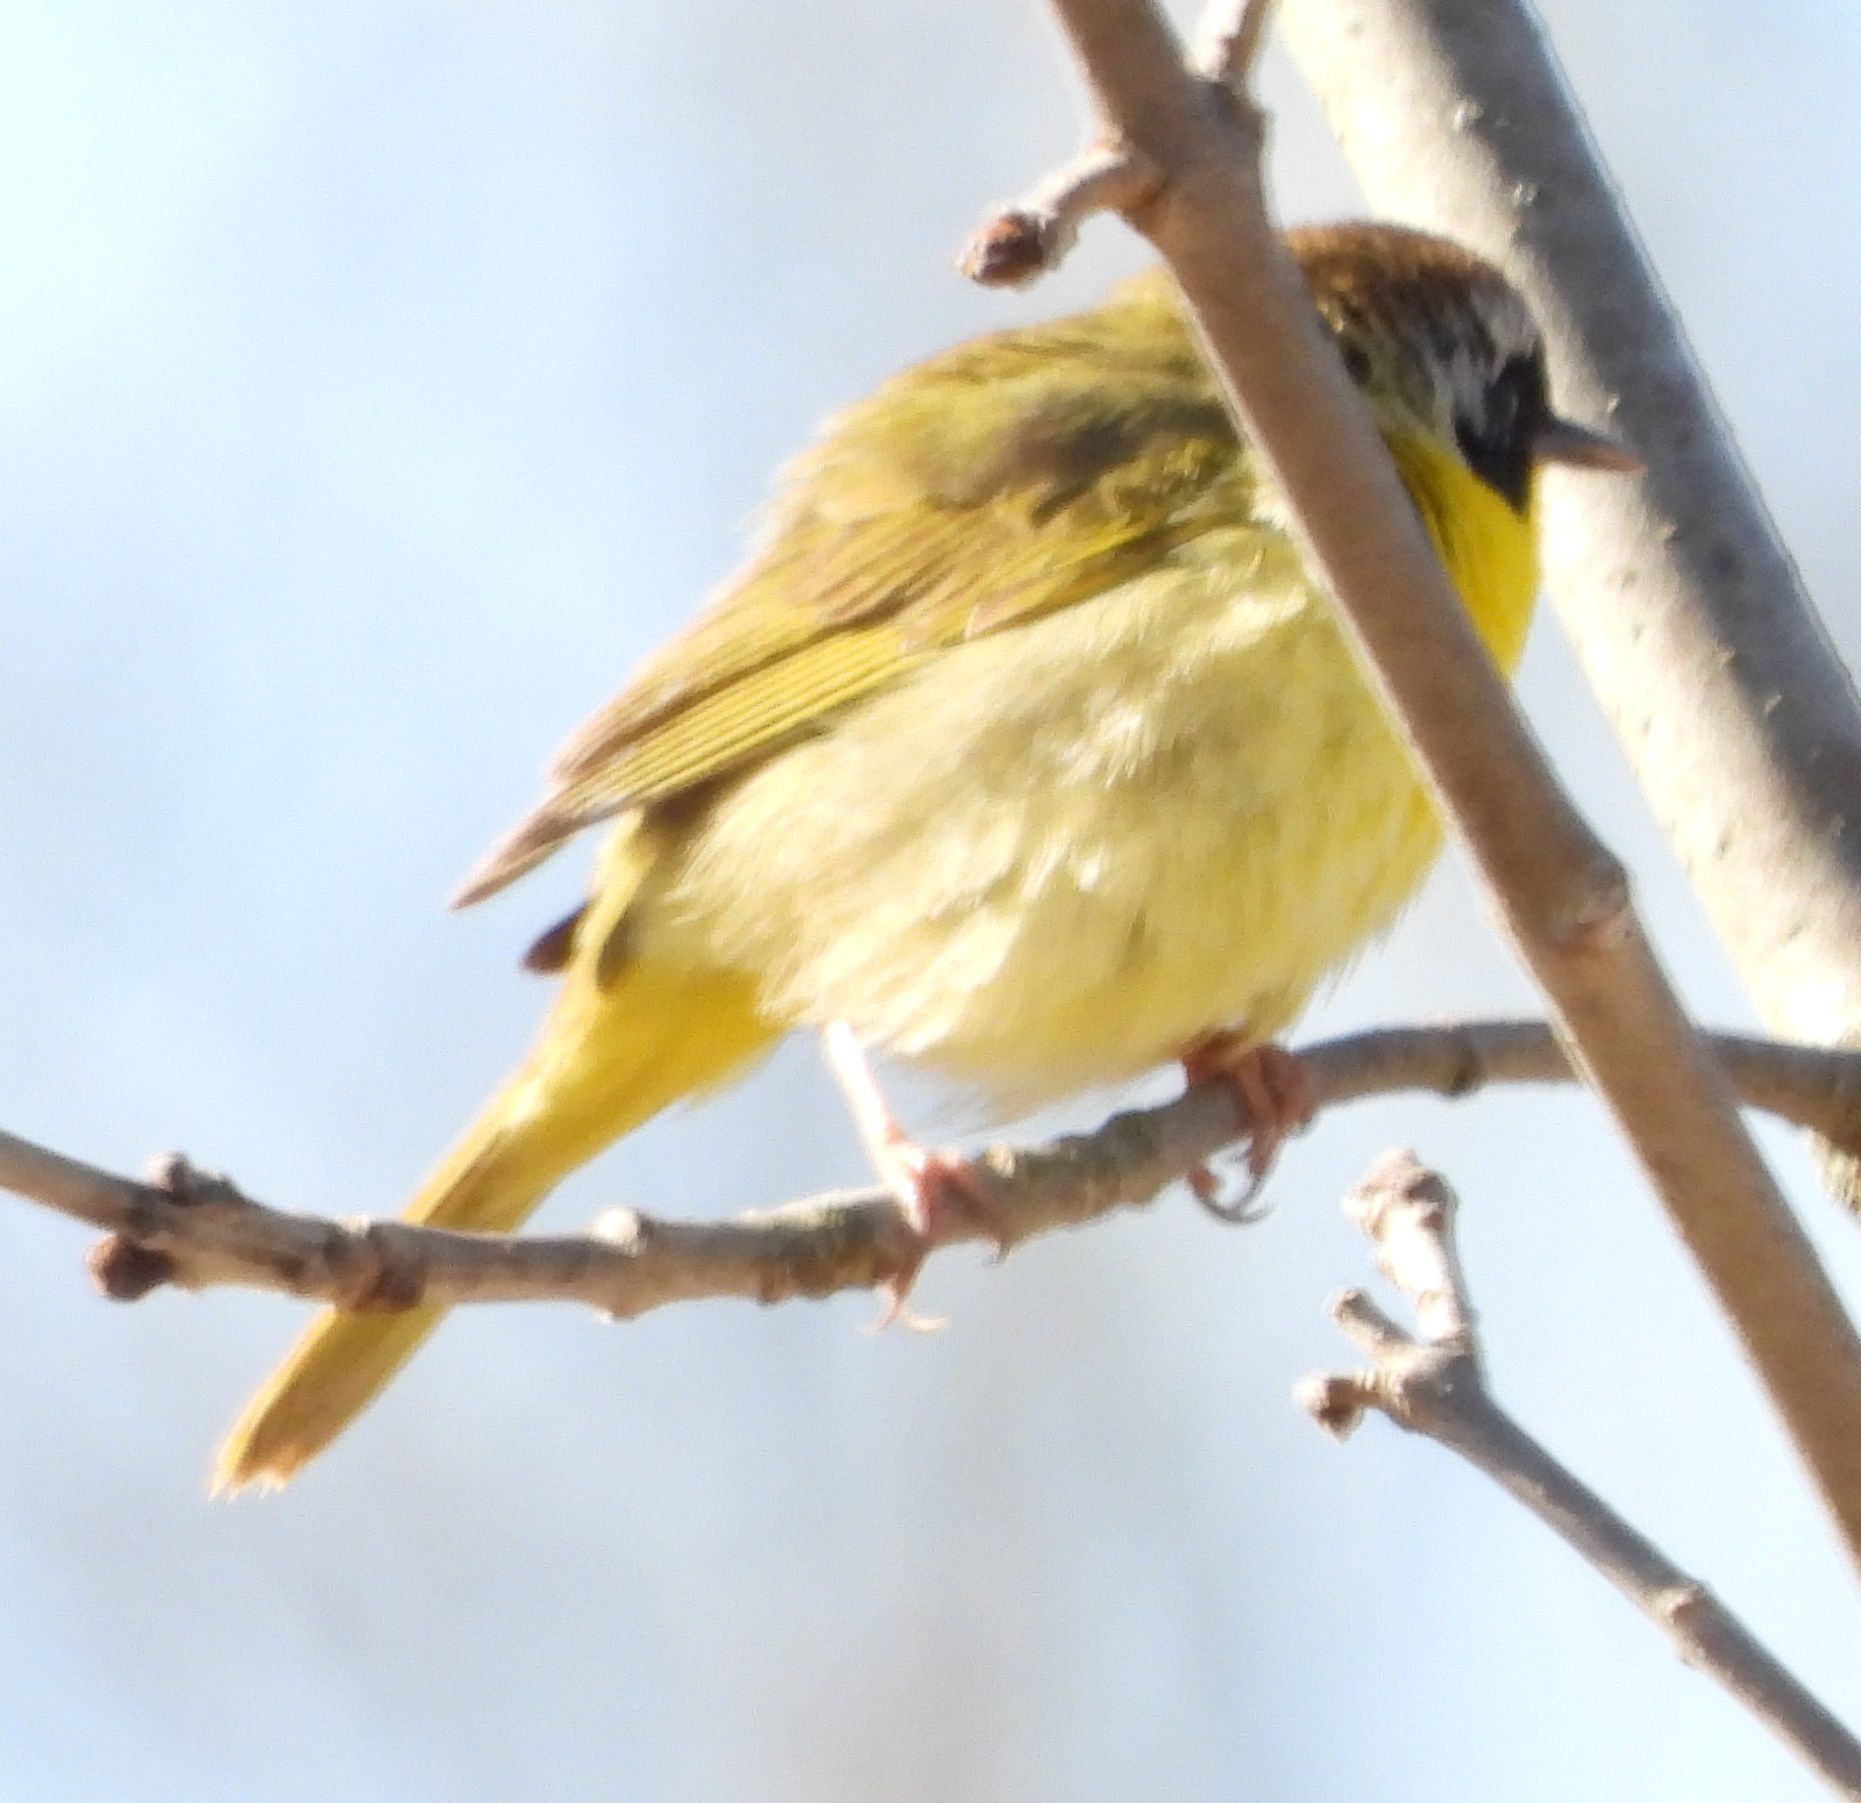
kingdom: Animalia
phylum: Chordata
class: Aves
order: Passeriformes
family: Parulidae
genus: Geothlypis
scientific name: Geothlypis trichas
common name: Common yellowthroat
